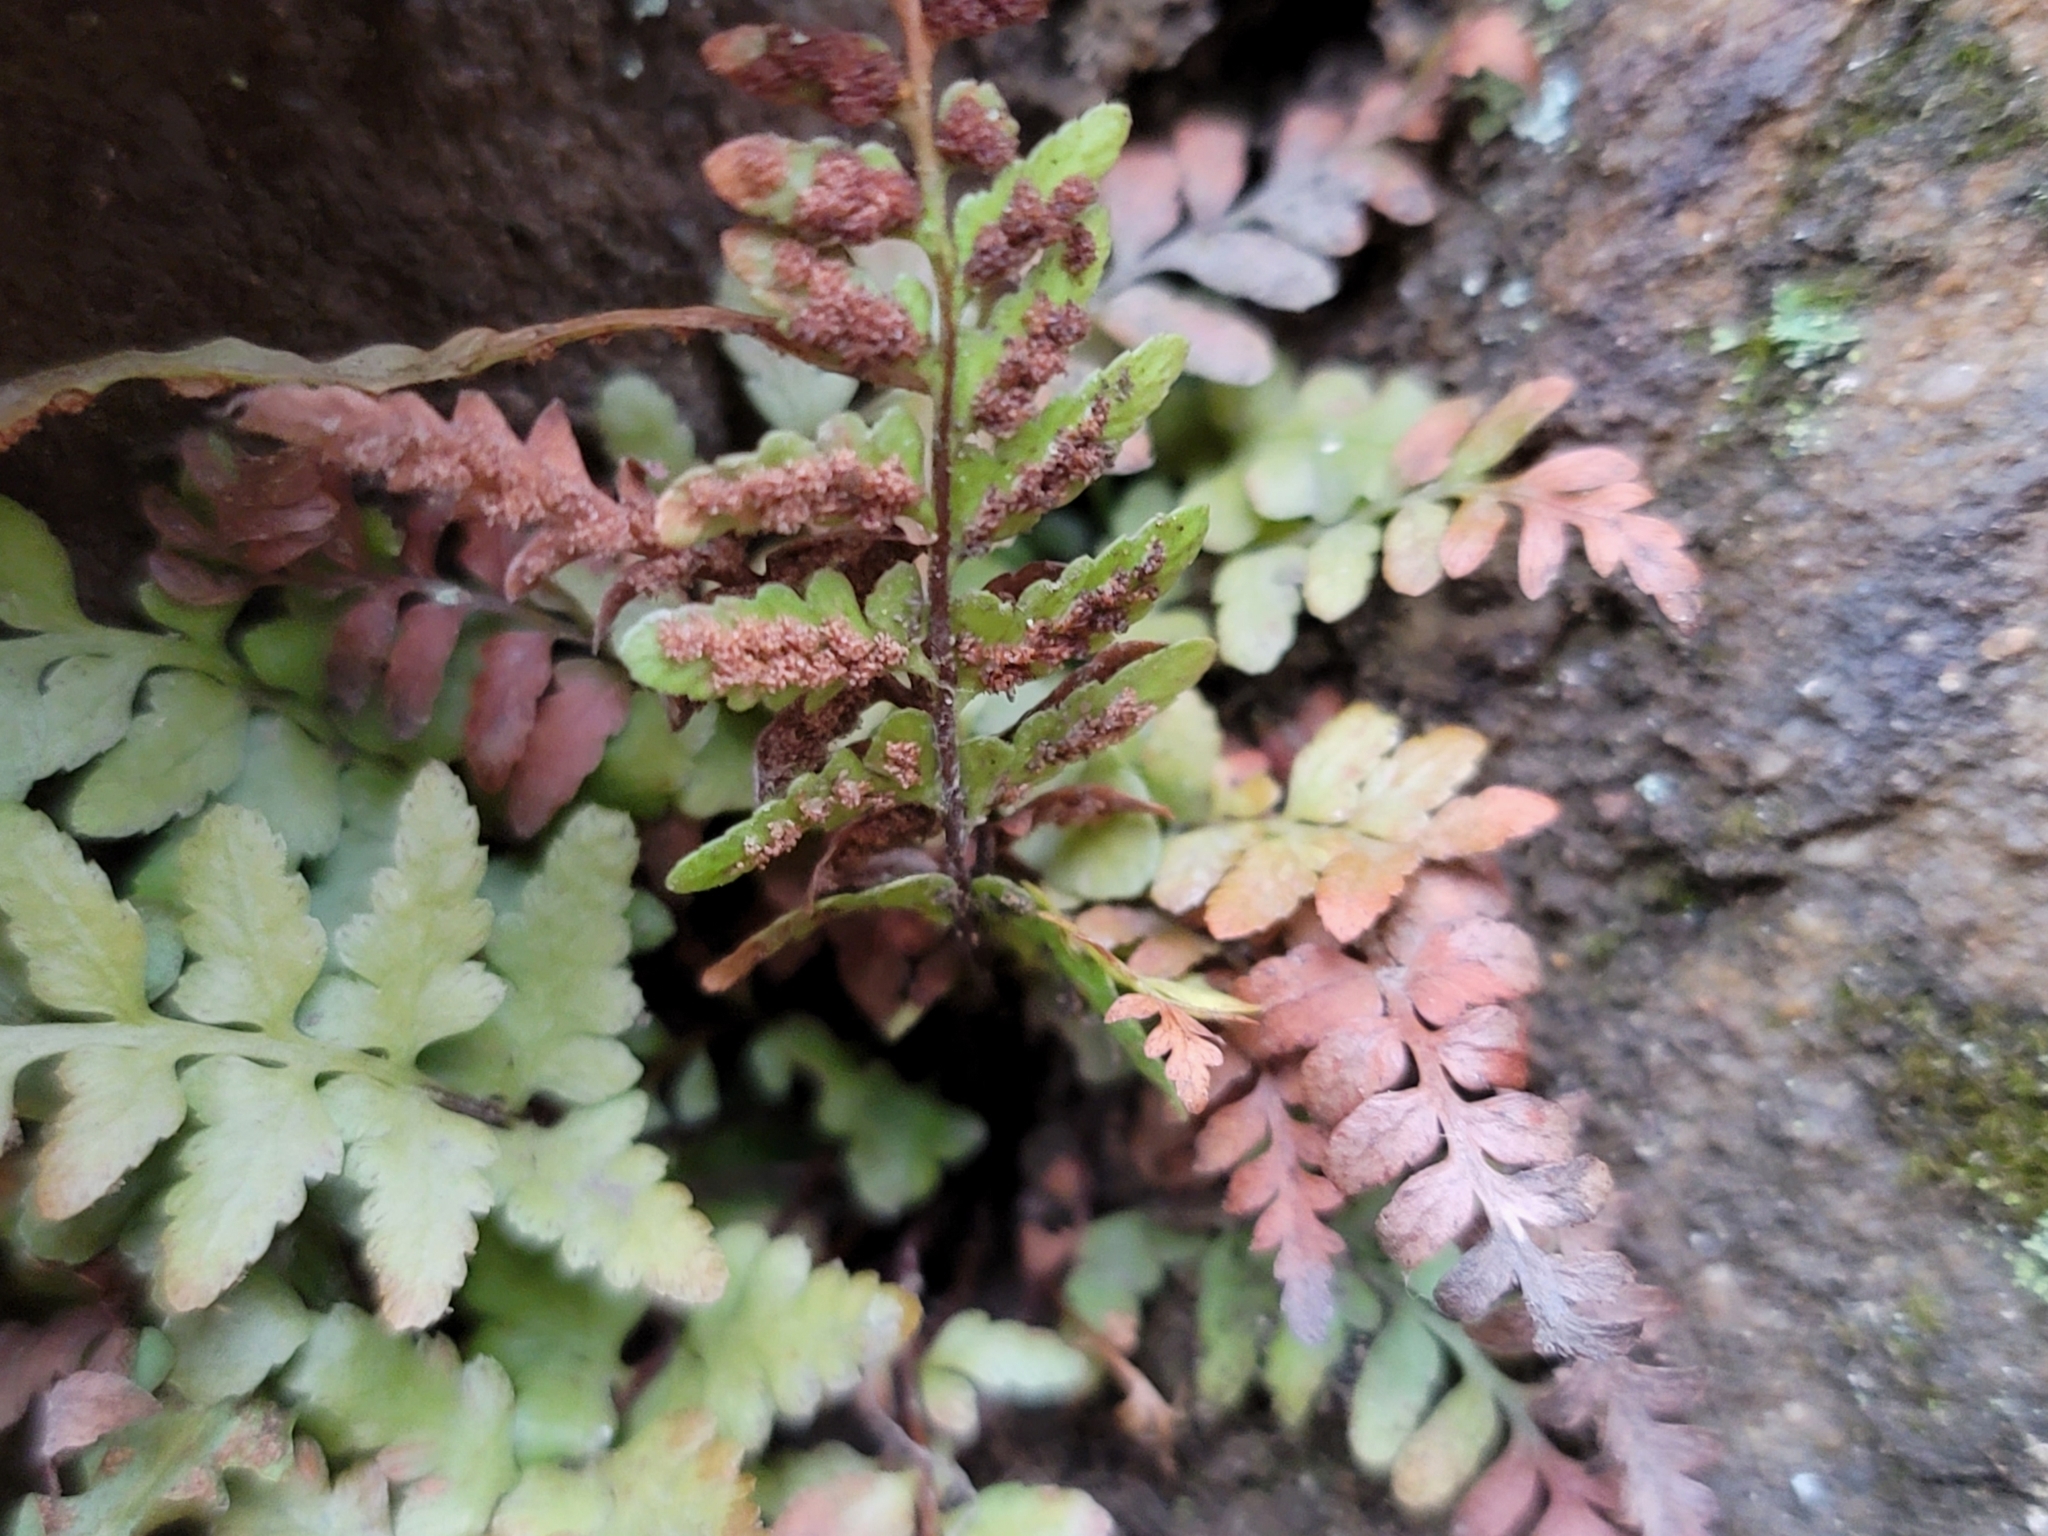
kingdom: Plantae
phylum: Tracheophyta
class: Polypodiopsida
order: Polypodiales
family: Aspleniaceae
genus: Asplenium
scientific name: Asplenium bradleyi
